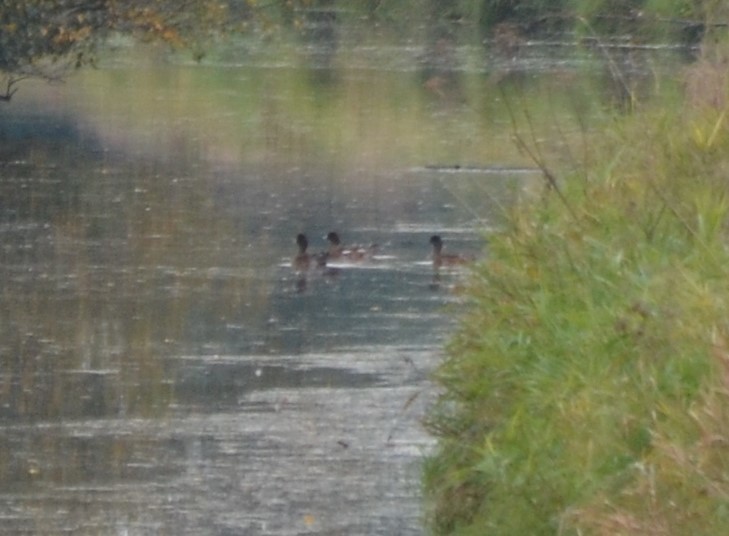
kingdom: Animalia
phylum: Chordata
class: Aves
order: Anseriformes
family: Anatidae
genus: Mareca
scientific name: Mareca penelope
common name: Eurasian wigeon
